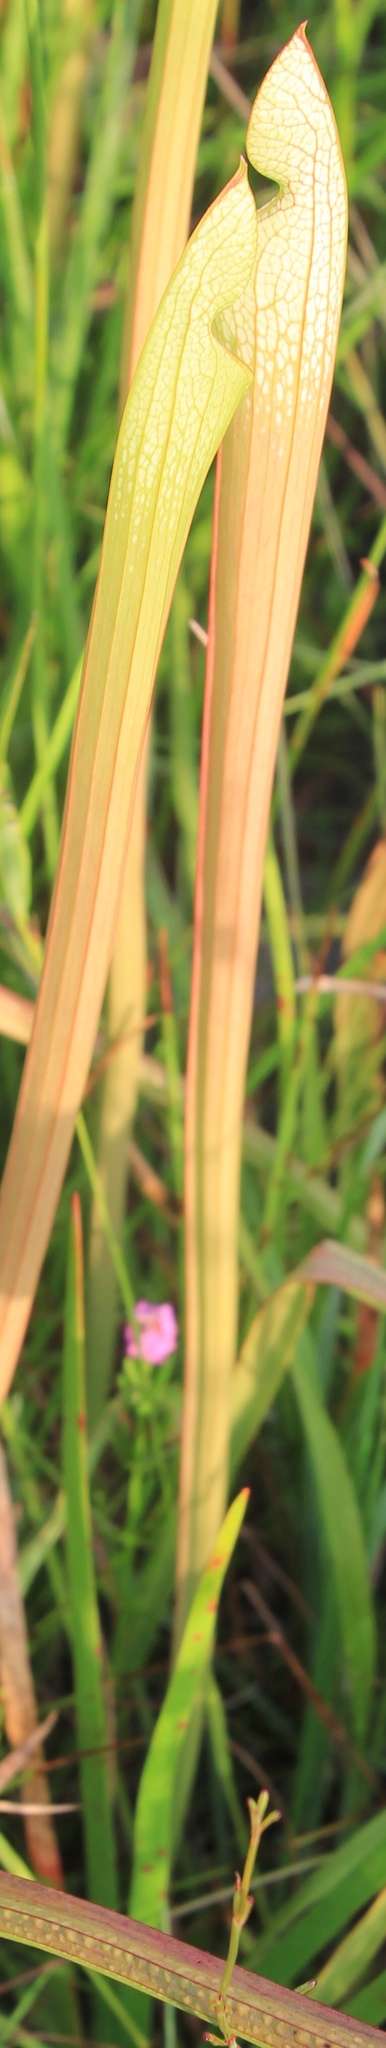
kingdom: Plantae
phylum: Tracheophyta
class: Magnoliopsida
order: Ericales
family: Sarraceniaceae
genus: Sarracenia
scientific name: Sarracenia leucophylla
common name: Purple trumpetleaf
